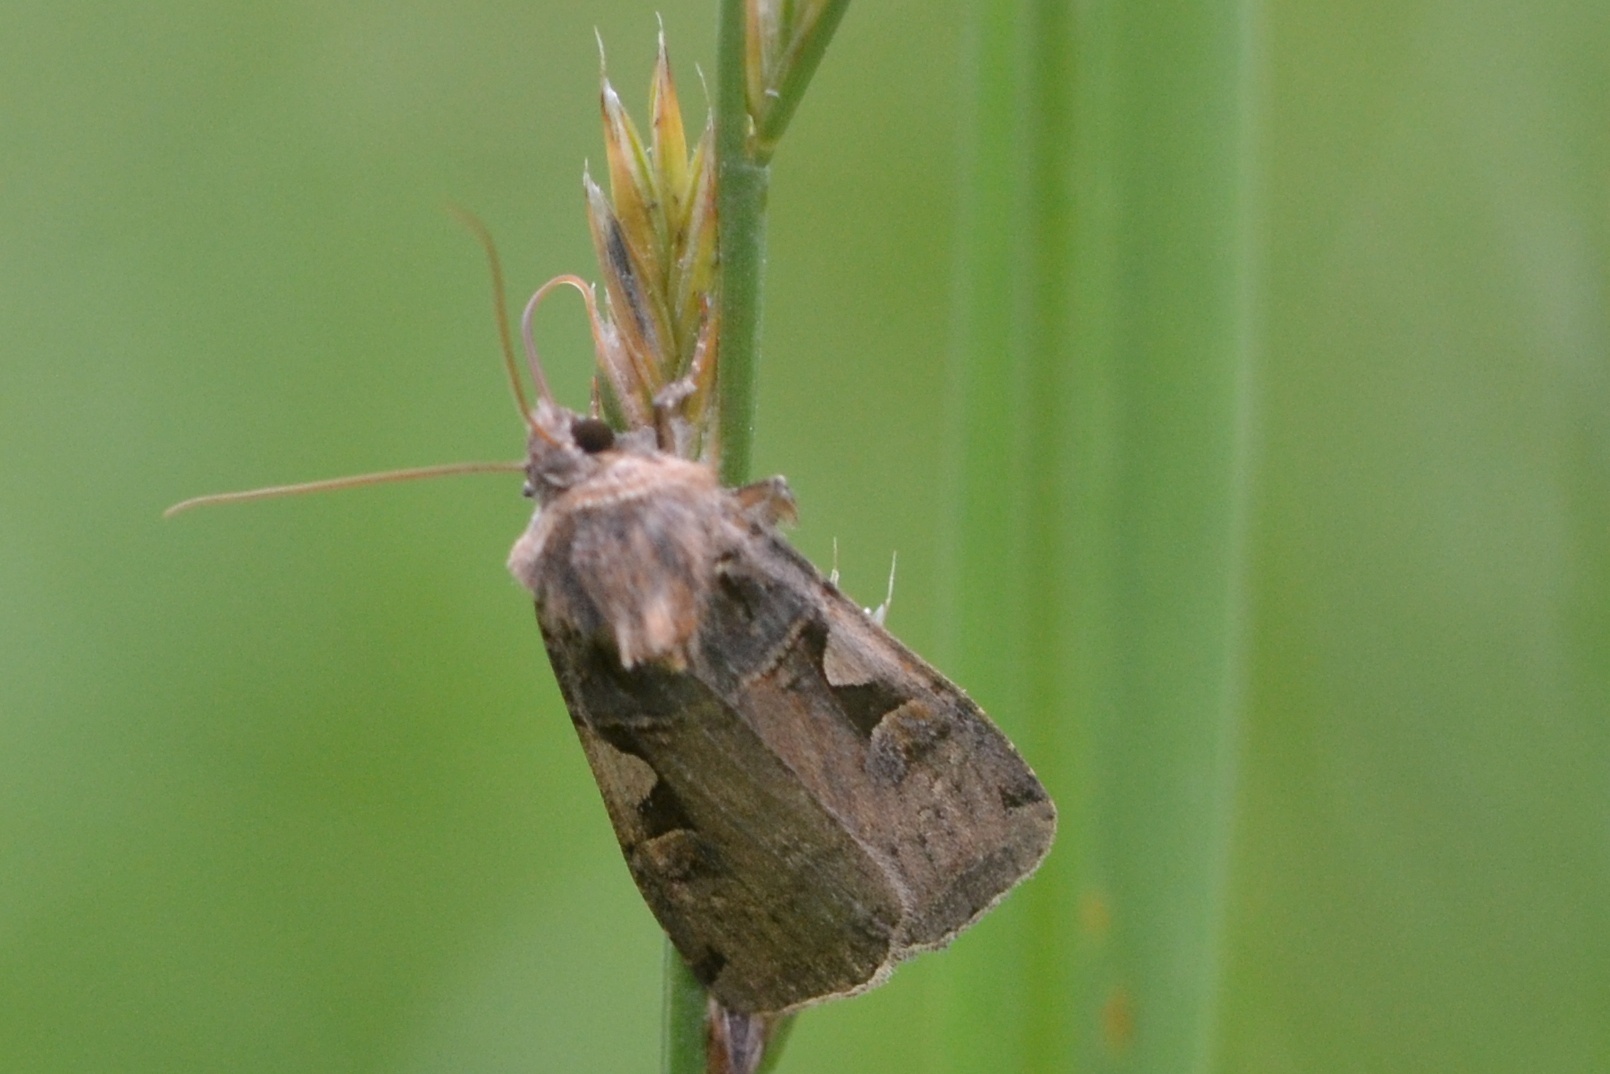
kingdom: Animalia
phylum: Arthropoda
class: Insecta
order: Lepidoptera
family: Noctuidae
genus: Xestia
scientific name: Xestia c-nigrum
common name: Setaceous hebrew character
